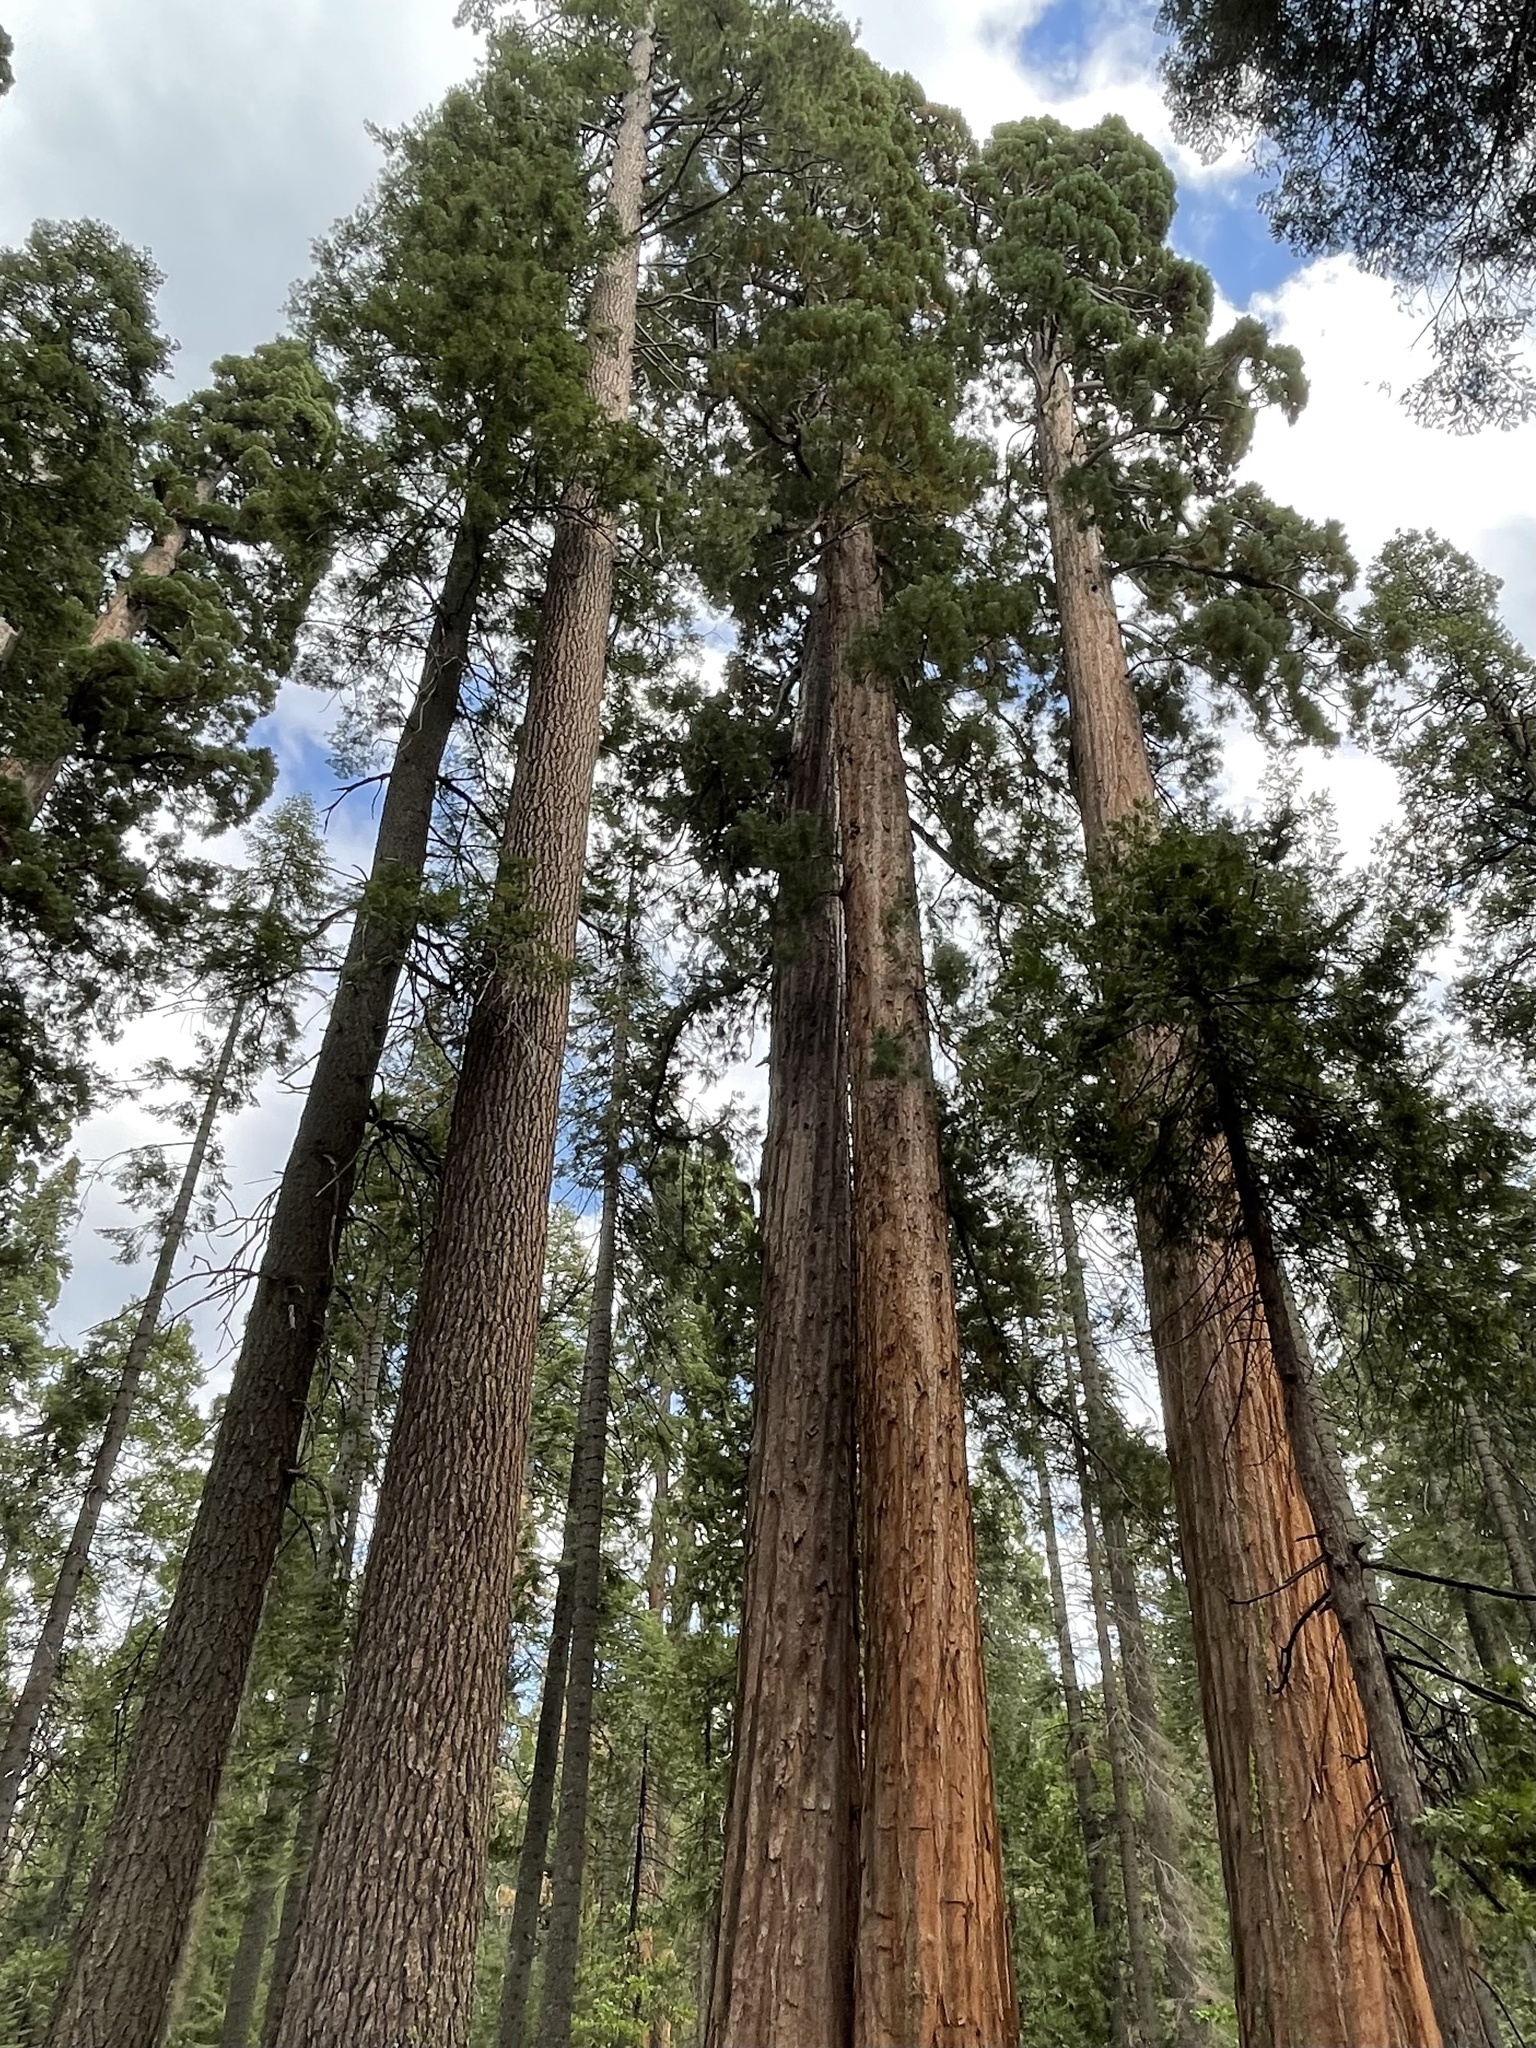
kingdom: Plantae
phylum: Tracheophyta
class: Pinopsida
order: Pinales
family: Cupressaceae
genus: Sequoiadendron
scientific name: Sequoiadendron giganteum
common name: Wellingtonia
